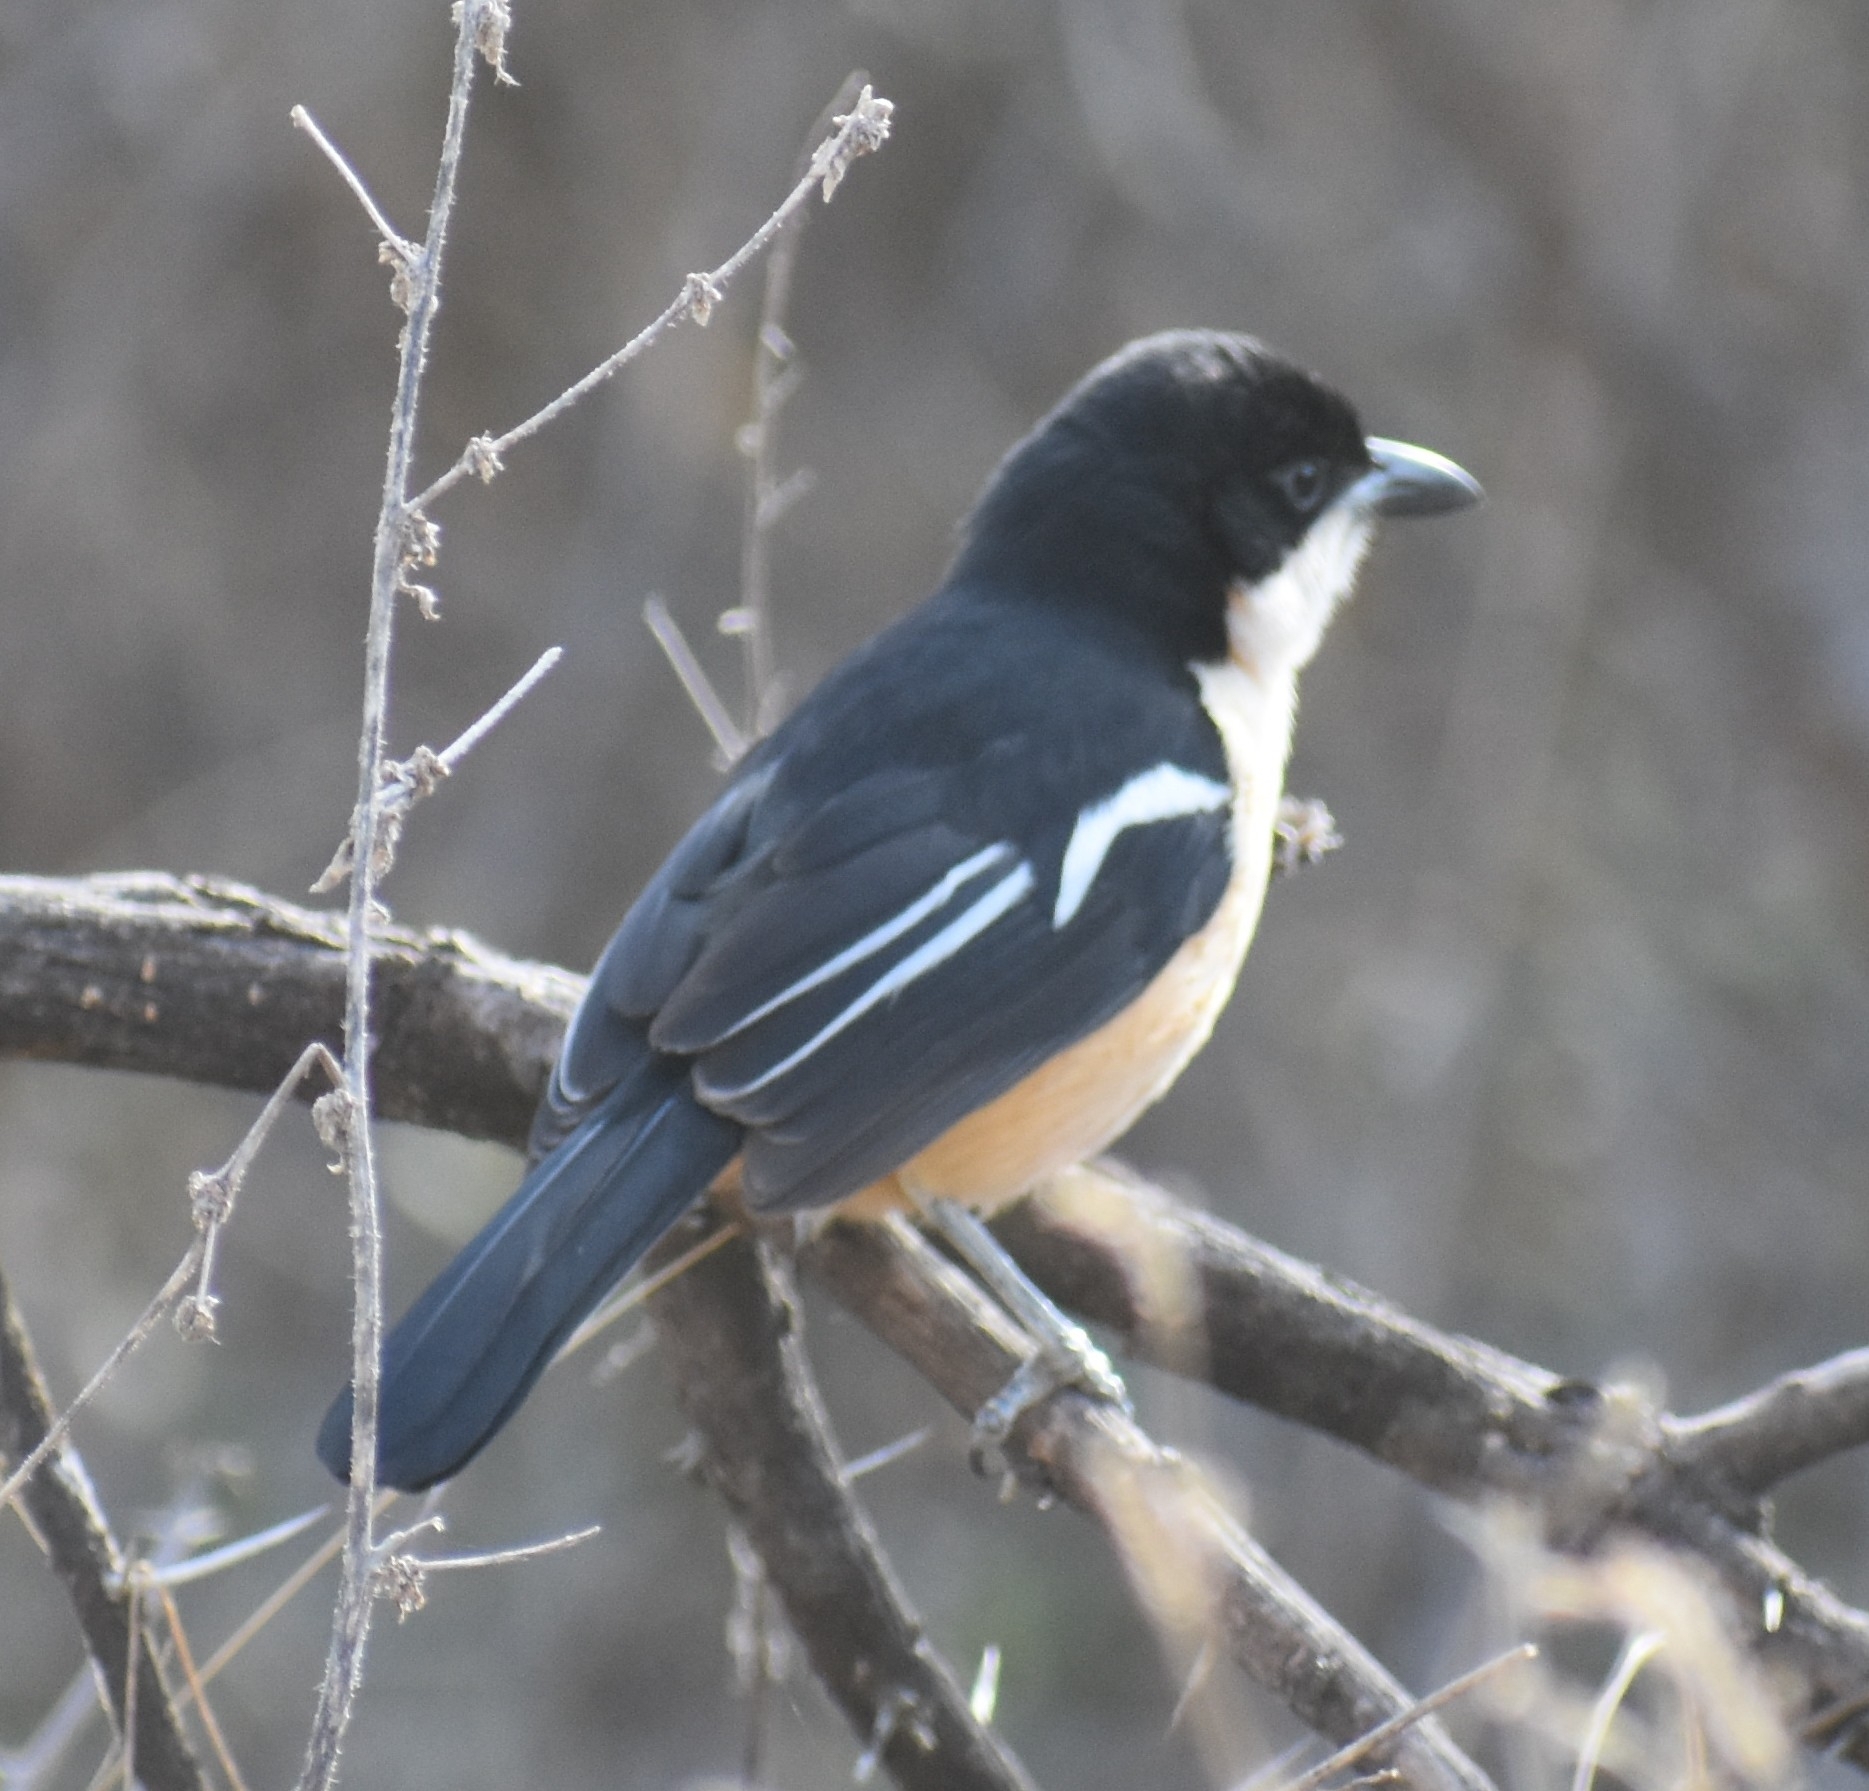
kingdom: Animalia
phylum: Chordata
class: Aves
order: Passeriformes
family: Malaconotidae
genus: Laniarius
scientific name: Laniarius ferrugineus
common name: Southern boubou
